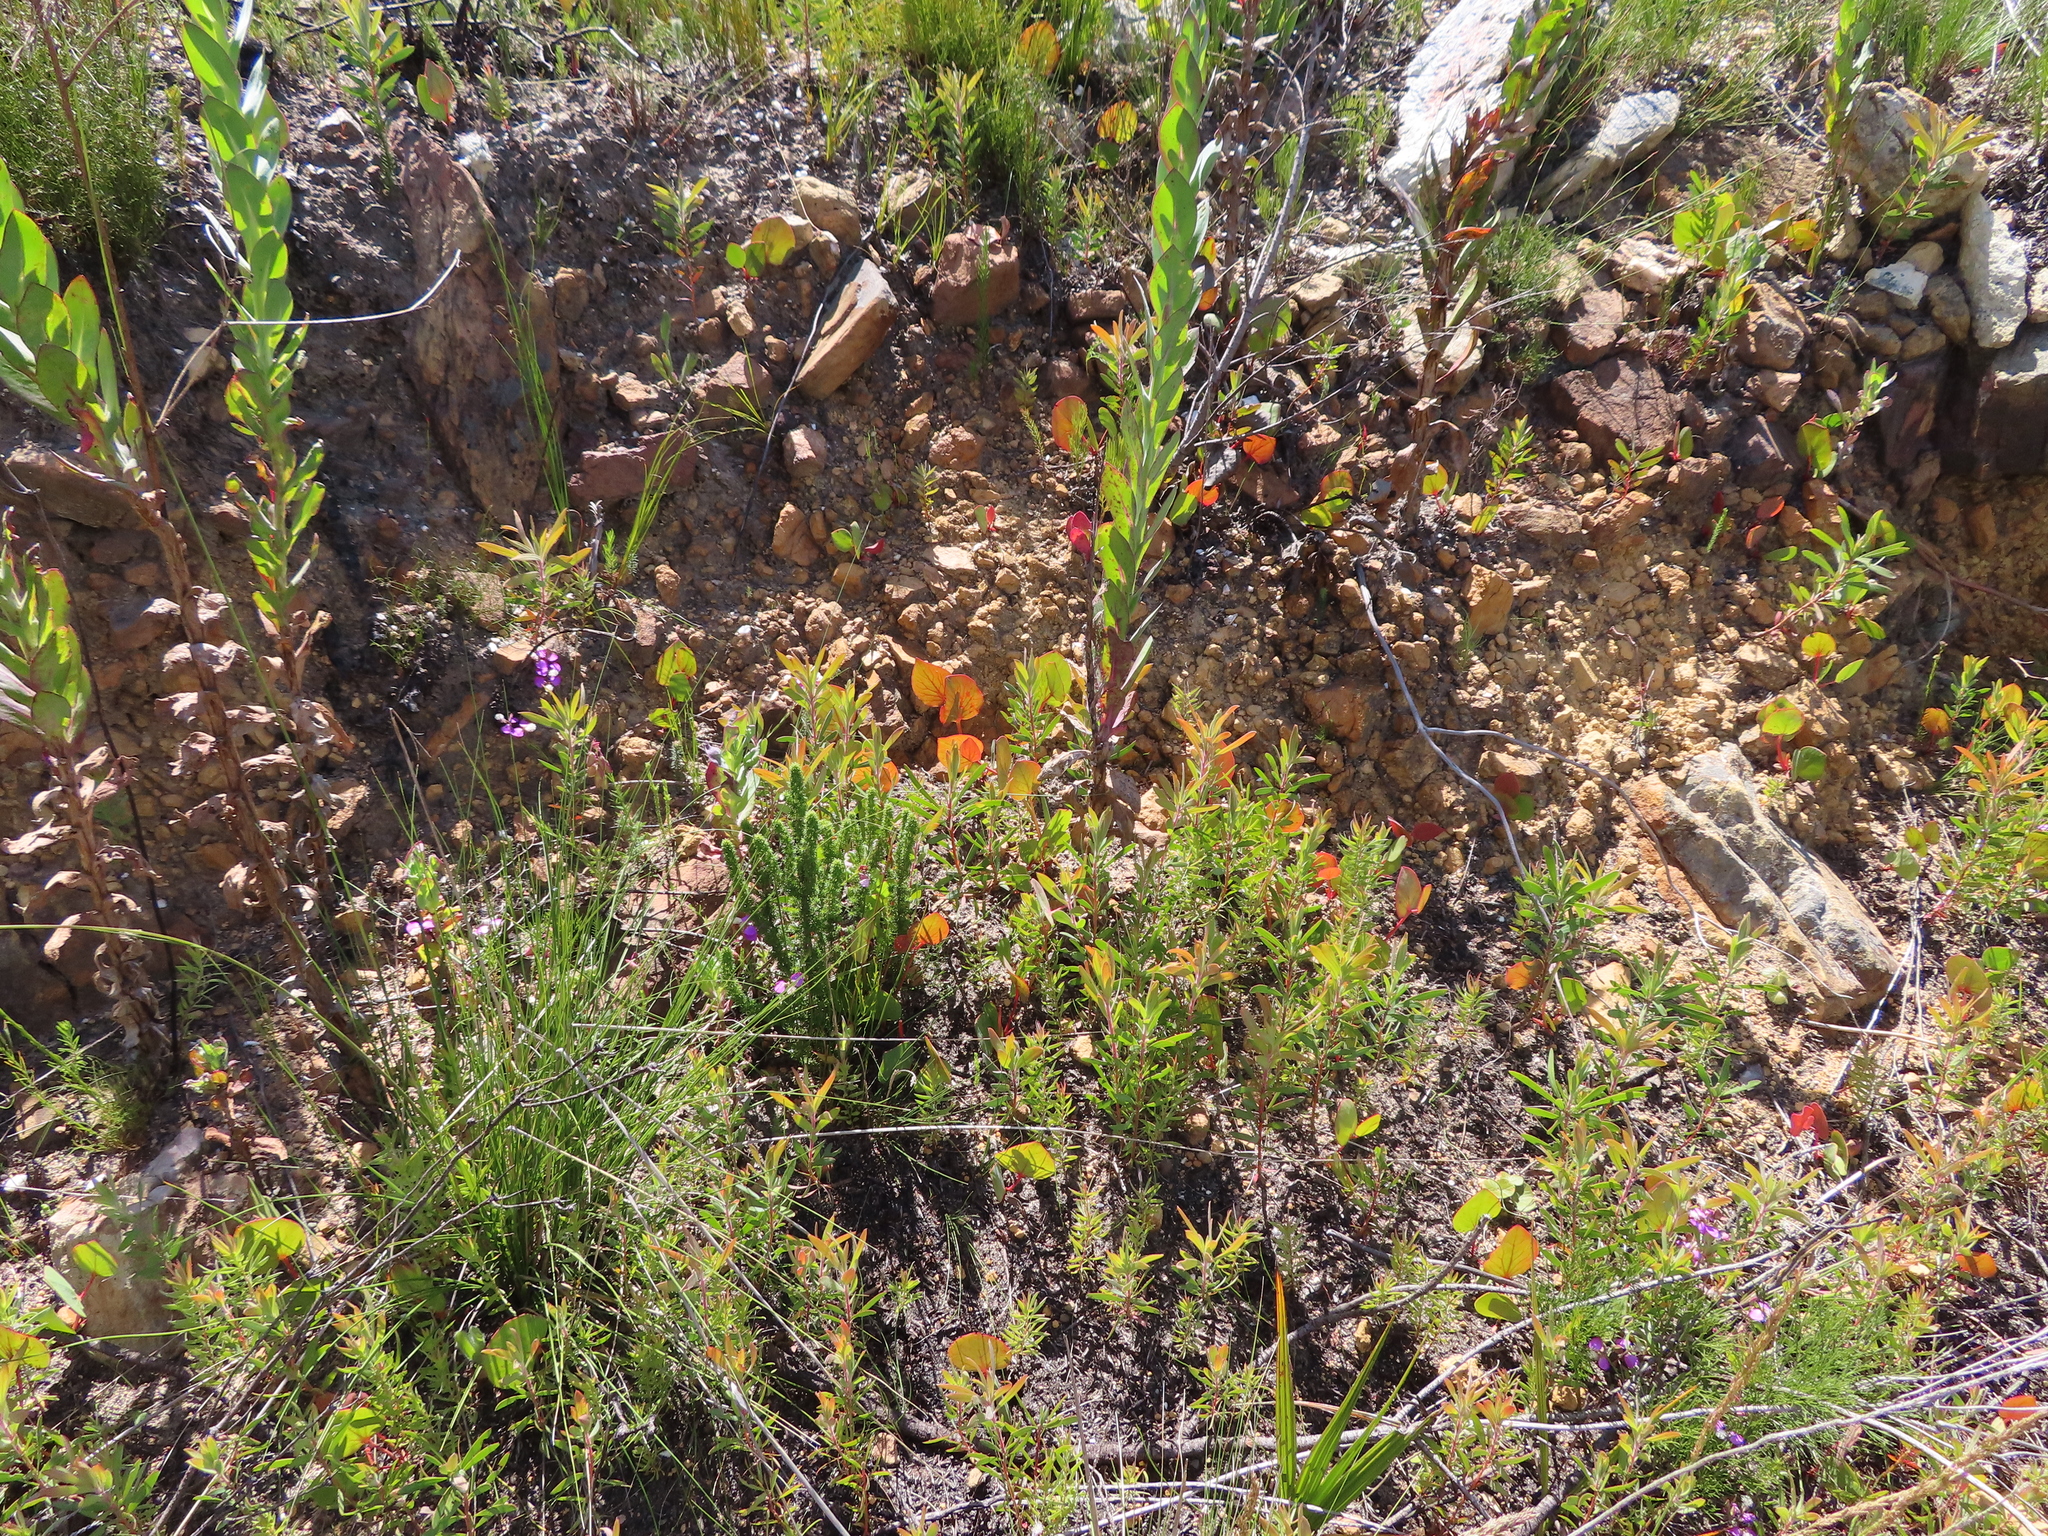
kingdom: Plantae
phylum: Tracheophyta
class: Magnoliopsida
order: Proteales
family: Proteaceae
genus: Protea
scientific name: Protea cordata
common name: Heart-leaf sugarbush
